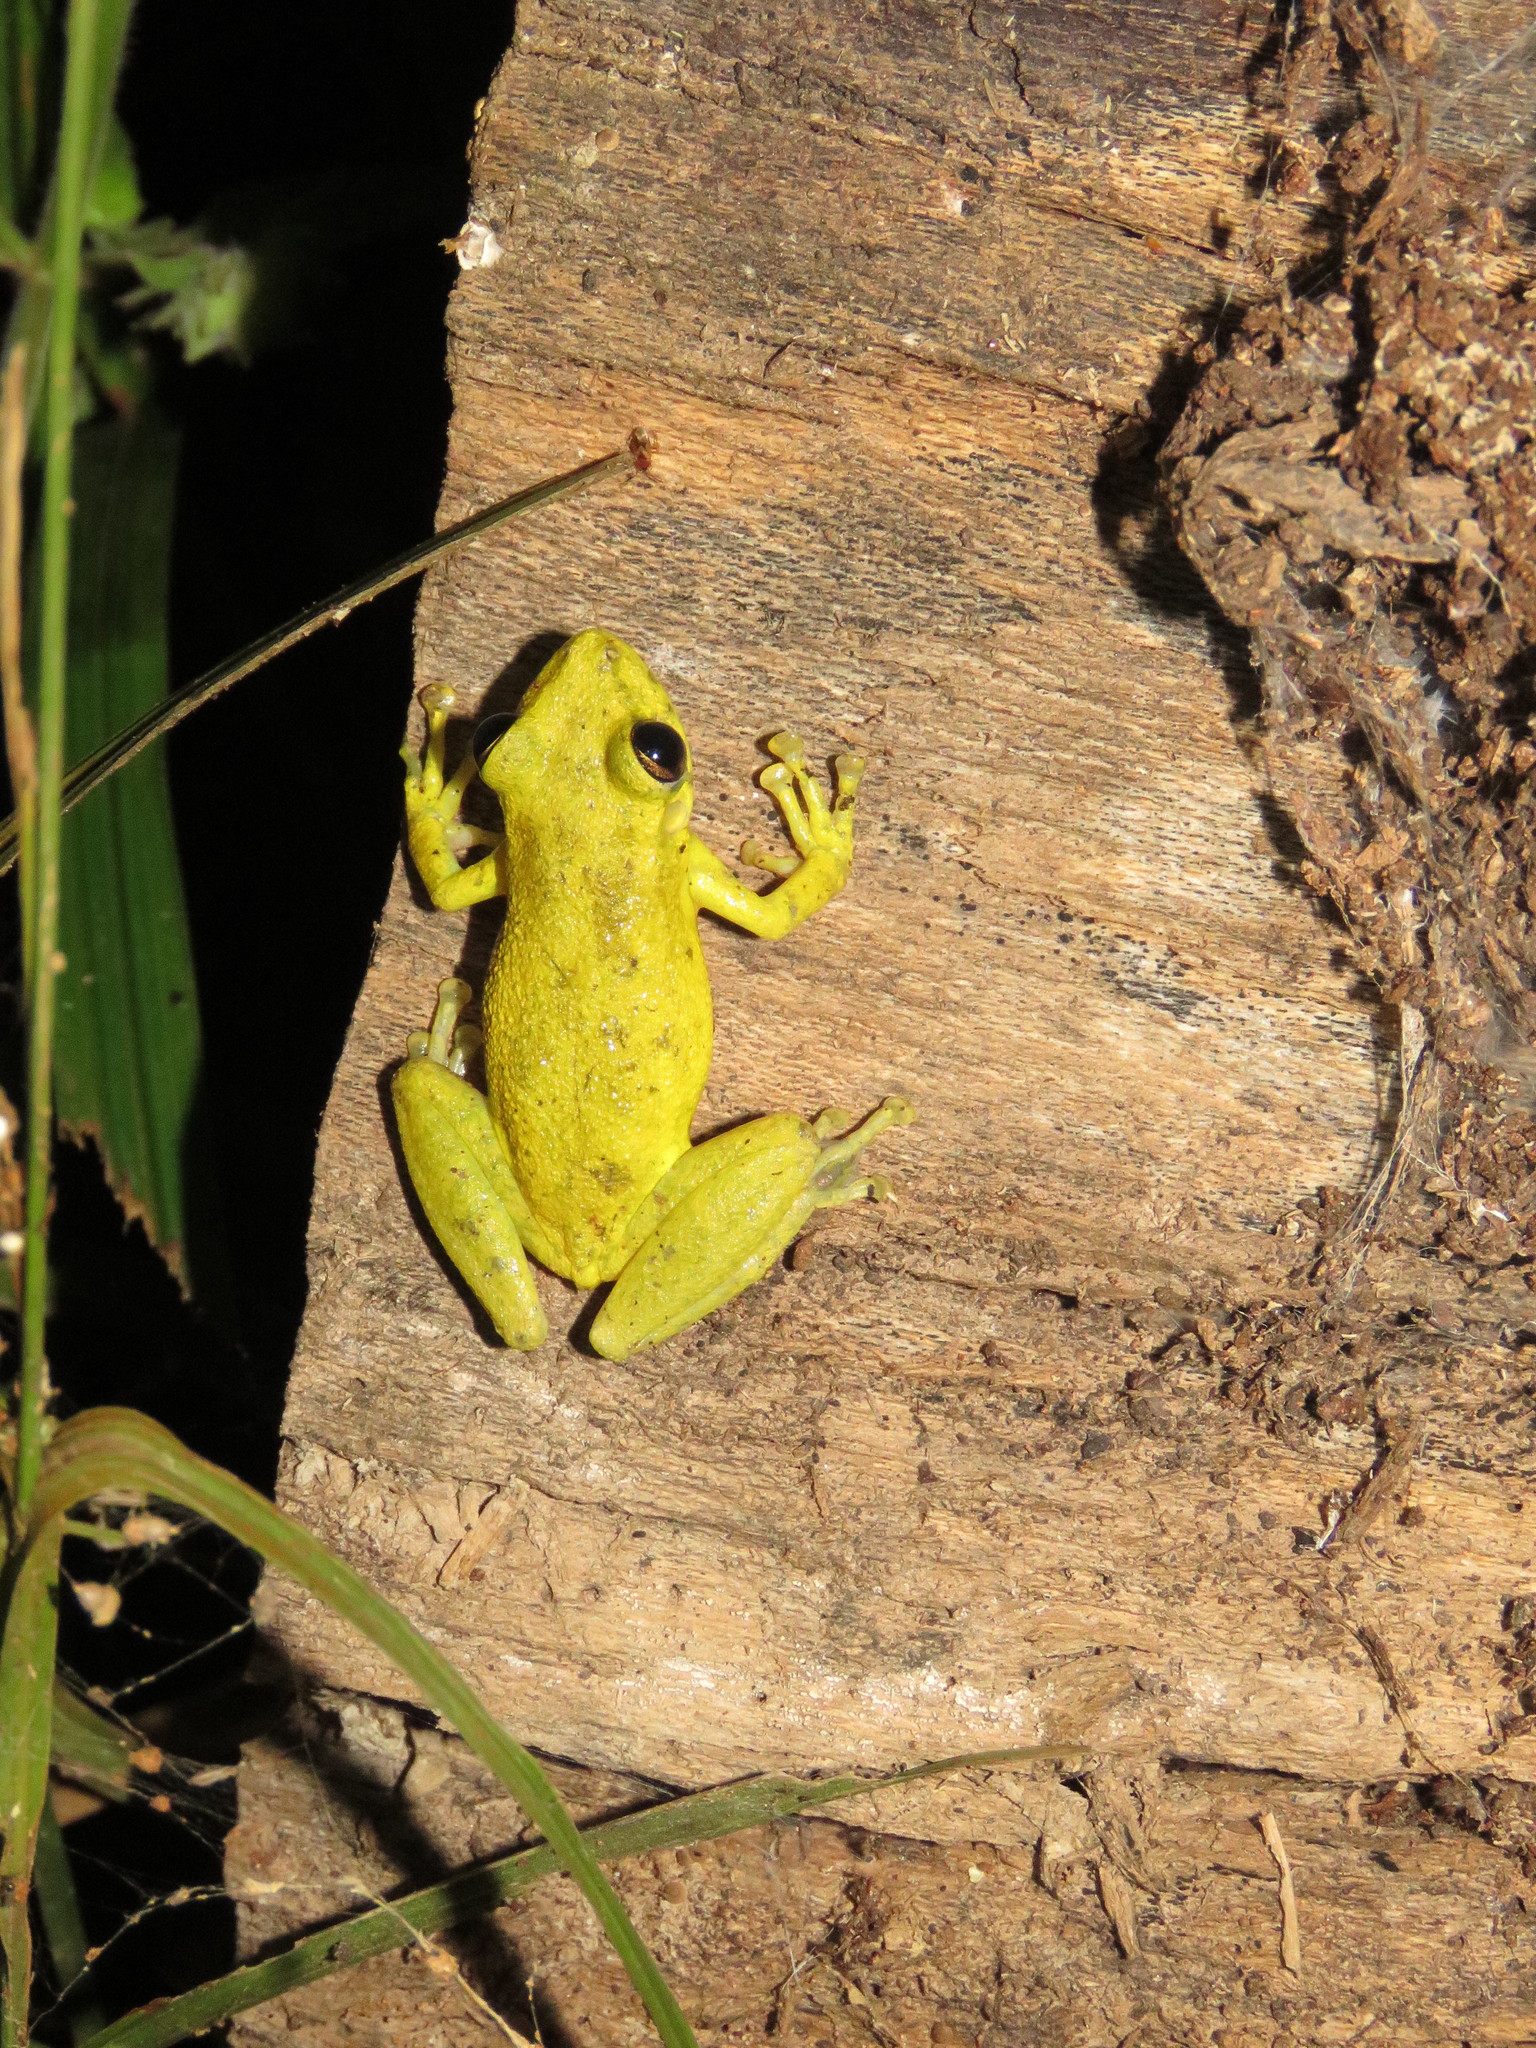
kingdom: Animalia
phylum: Chordata
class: Amphibia
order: Anura
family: Hylidae
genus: Scinax
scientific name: Scinax ruber
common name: Red snouted treefrog
